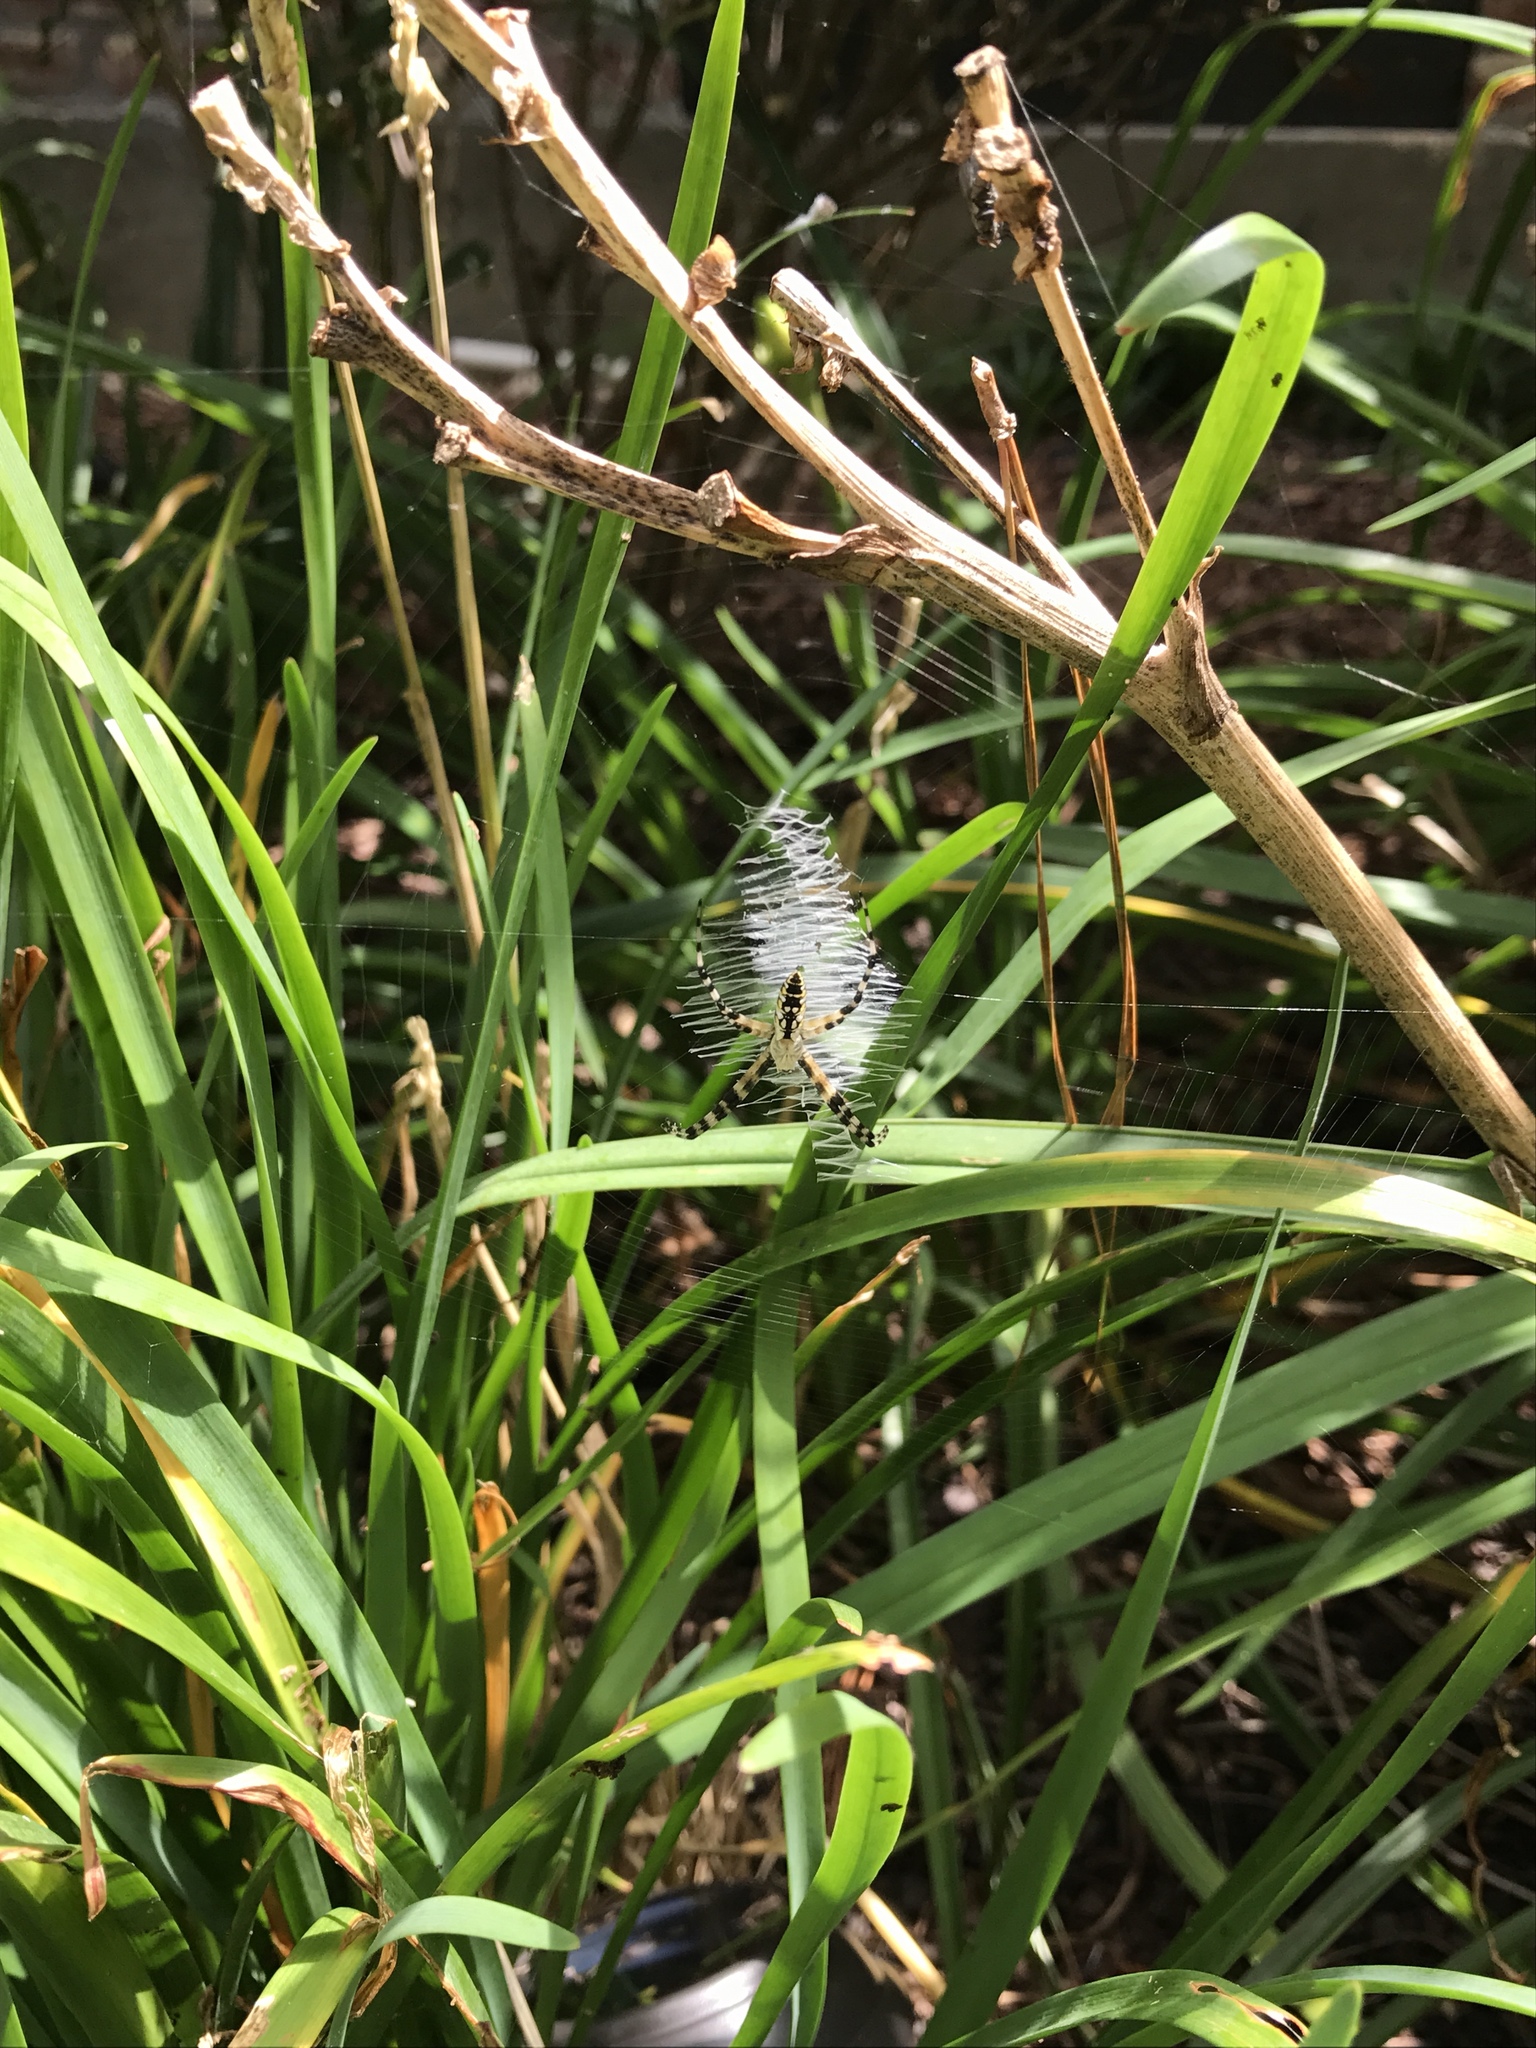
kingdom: Animalia
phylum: Arthropoda
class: Arachnida
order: Araneae
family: Araneidae
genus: Argiope
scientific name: Argiope aurantia
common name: Orb weavers
